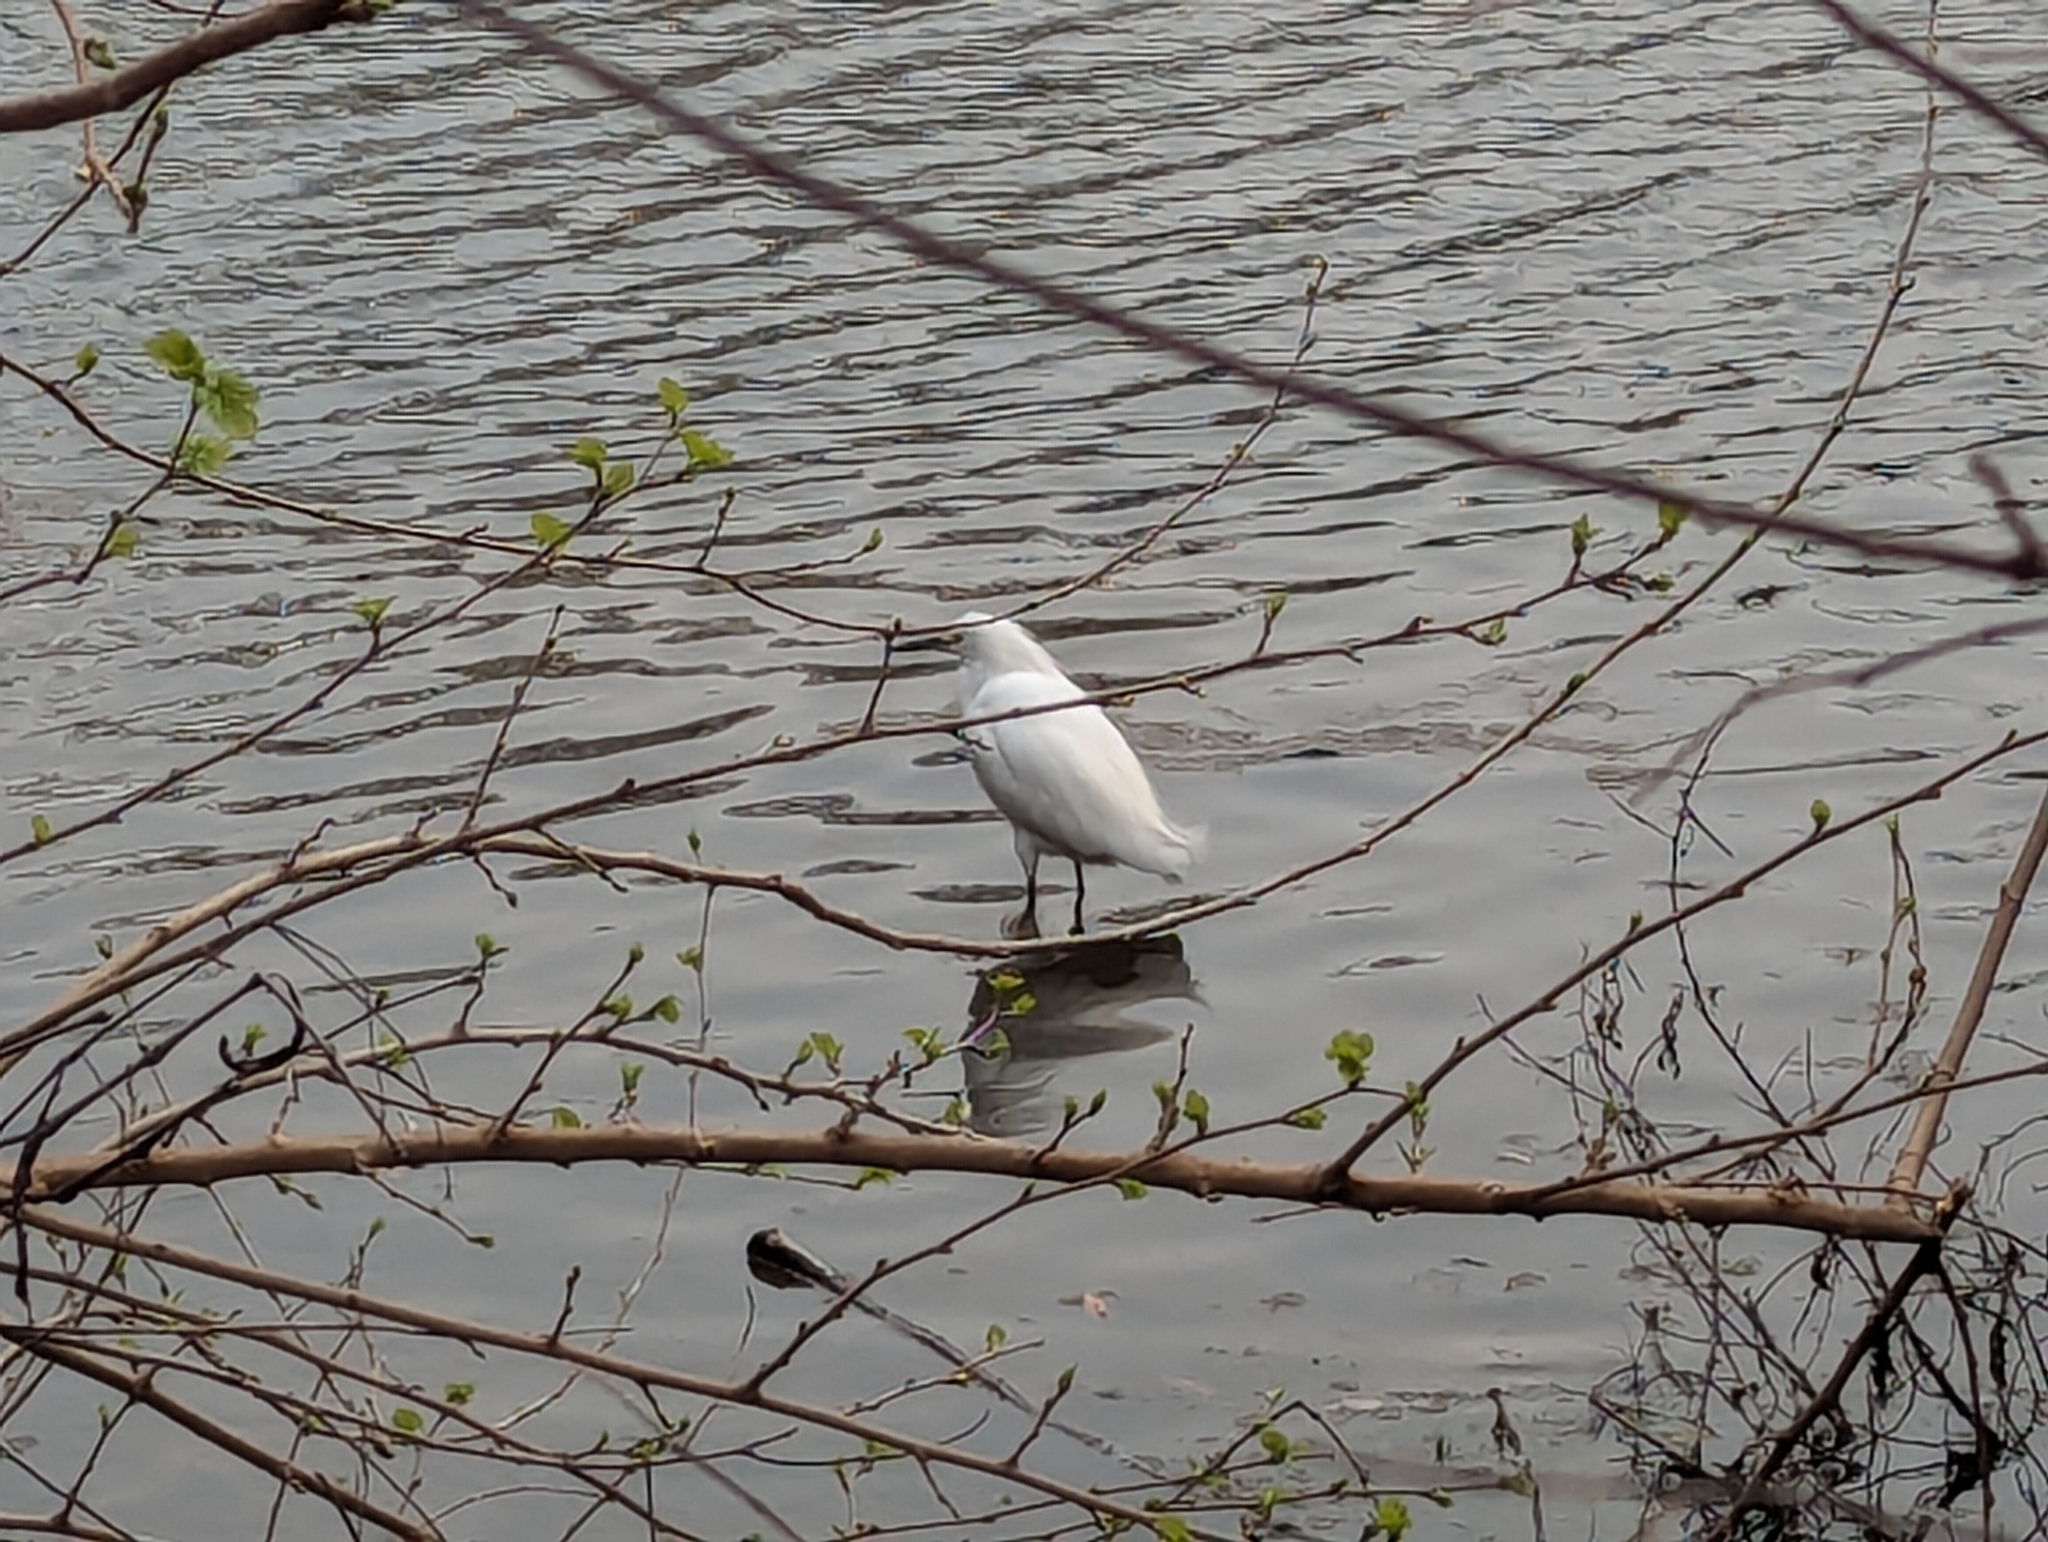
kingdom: Animalia
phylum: Chordata
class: Aves
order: Pelecaniformes
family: Ardeidae
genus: Egretta
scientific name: Egretta thula
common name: Snowy egret
